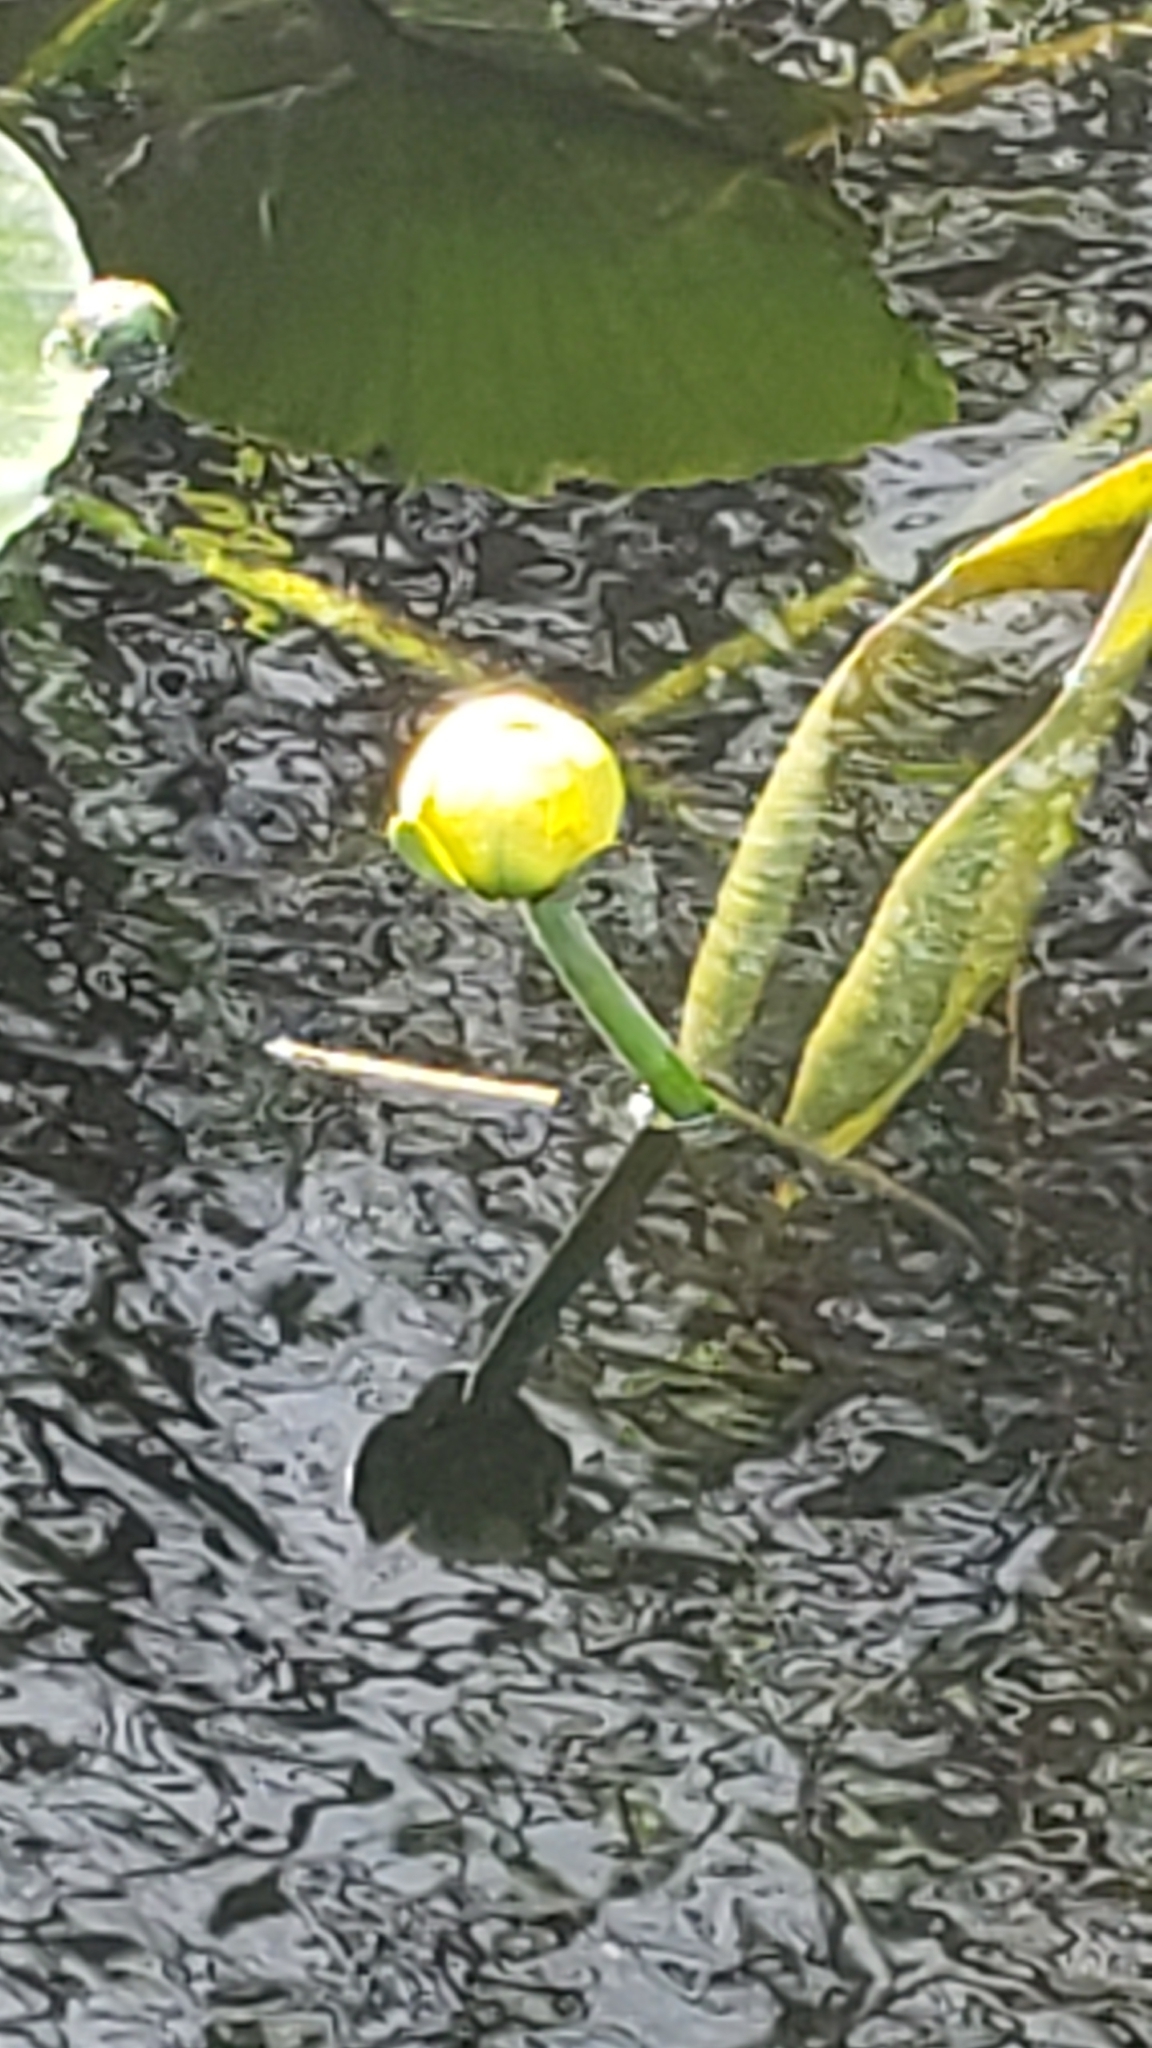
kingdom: Plantae
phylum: Tracheophyta
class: Magnoliopsida
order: Nymphaeales
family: Nymphaeaceae
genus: Nuphar
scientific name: Nuphar advena
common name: Spatter-dock
